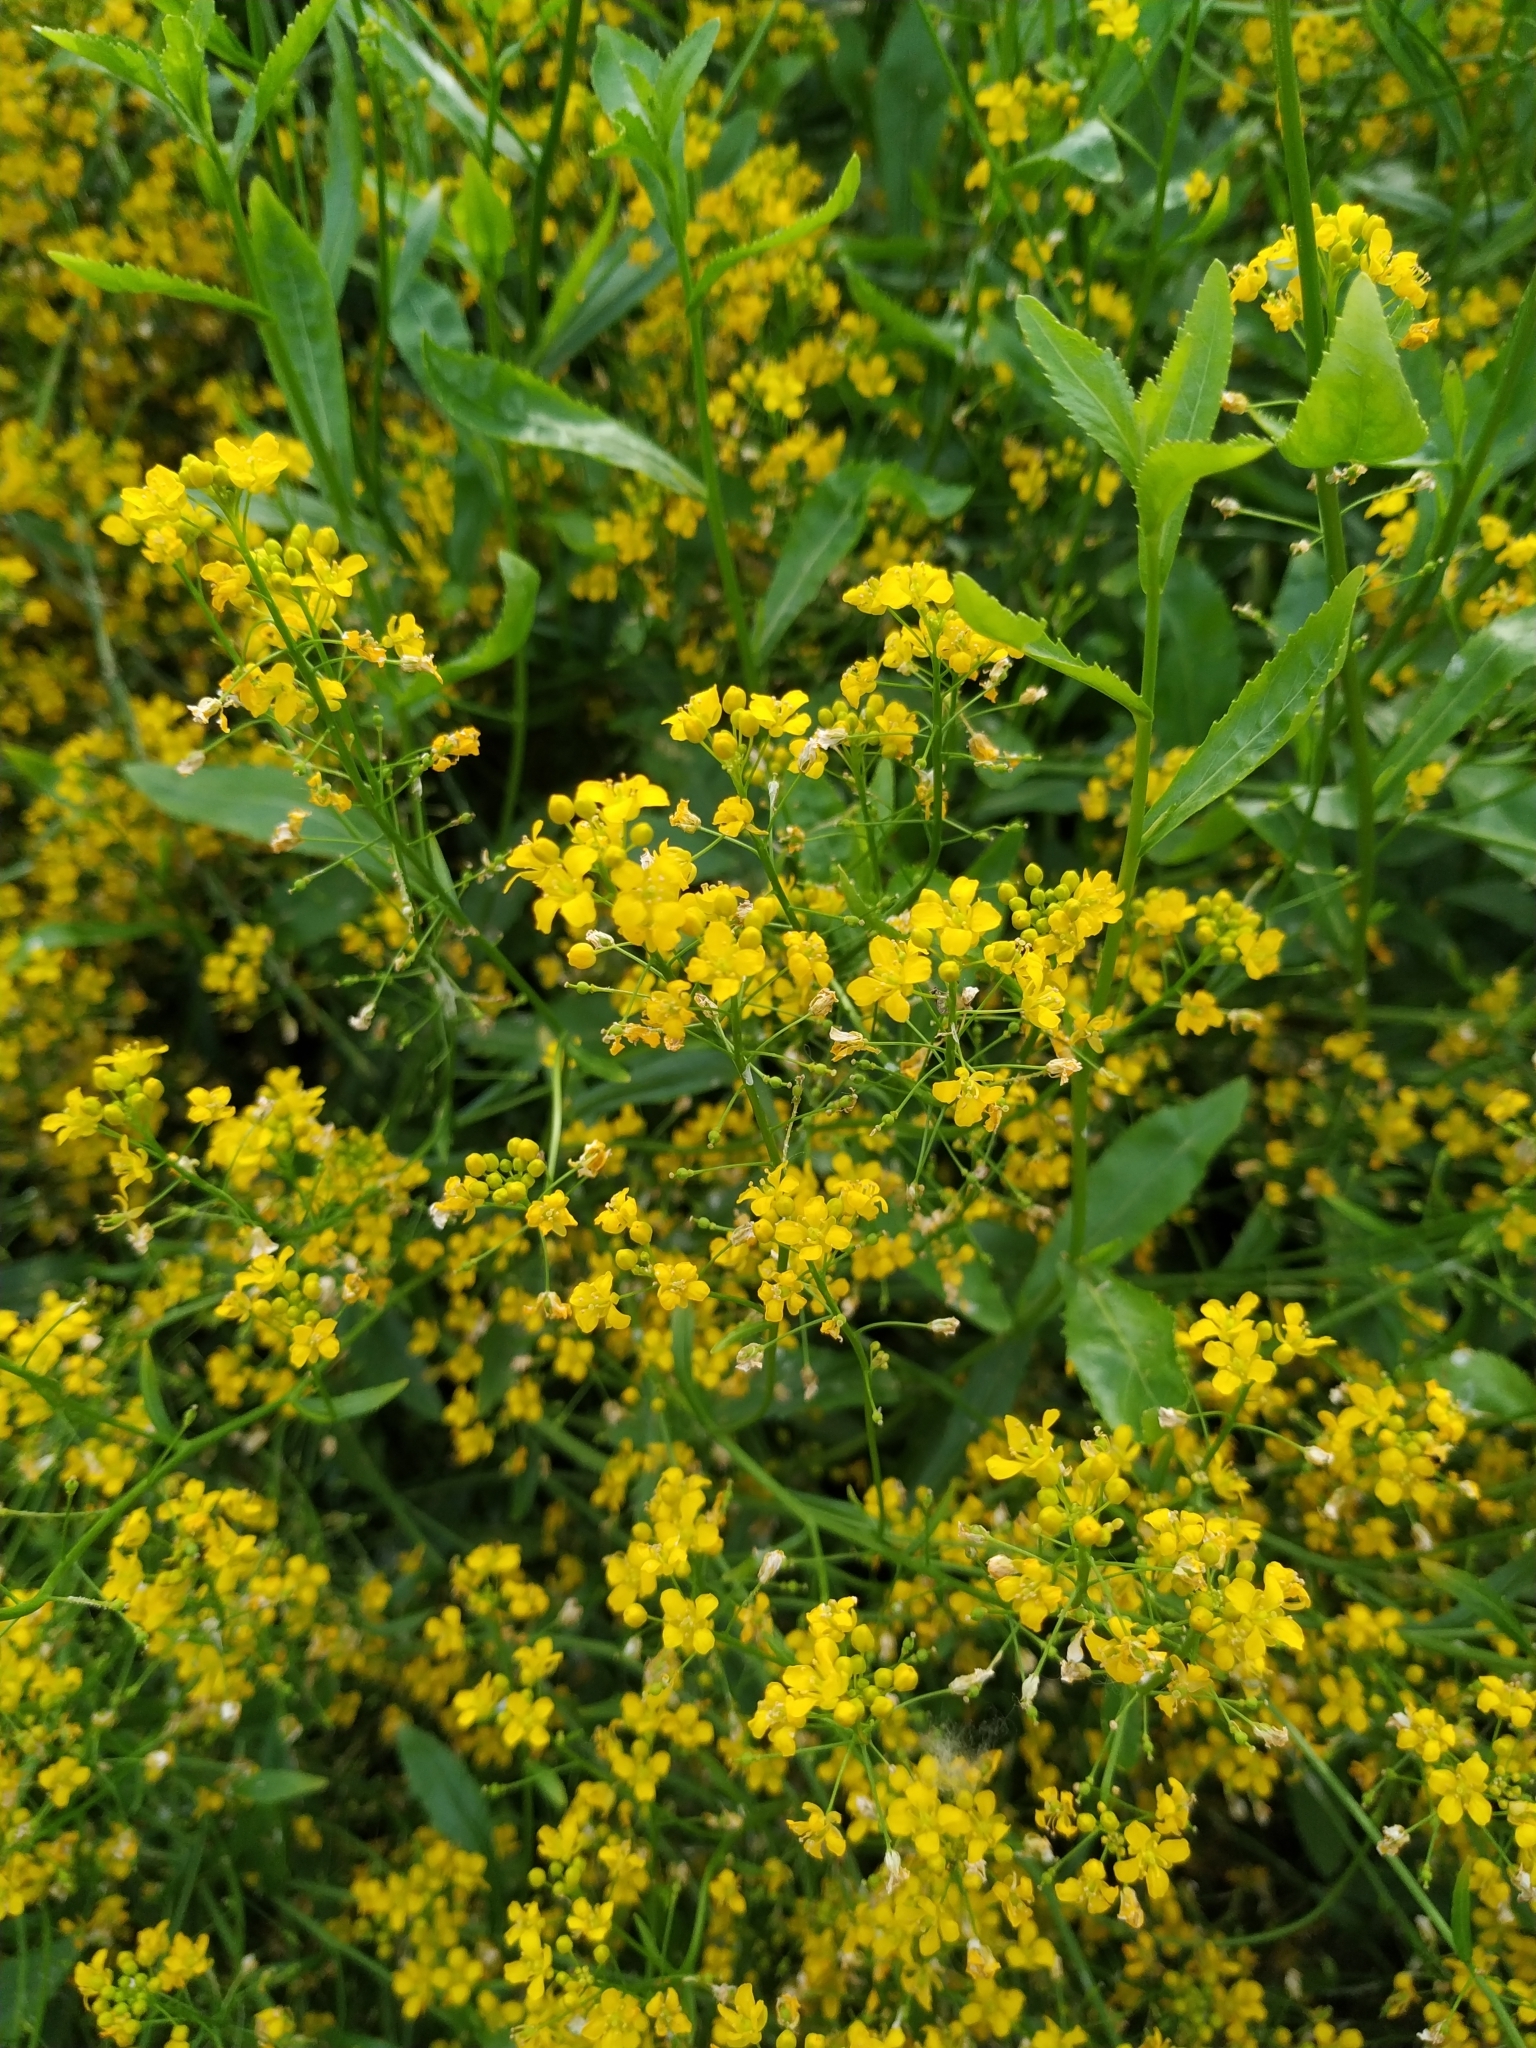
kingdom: Plantae
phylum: Tracheophyta
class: Magnoliopsida
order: Brassicales
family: Brassicaceae
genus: Rorippa
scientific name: Rorippa austriaca
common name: Austrian yellow-cress
